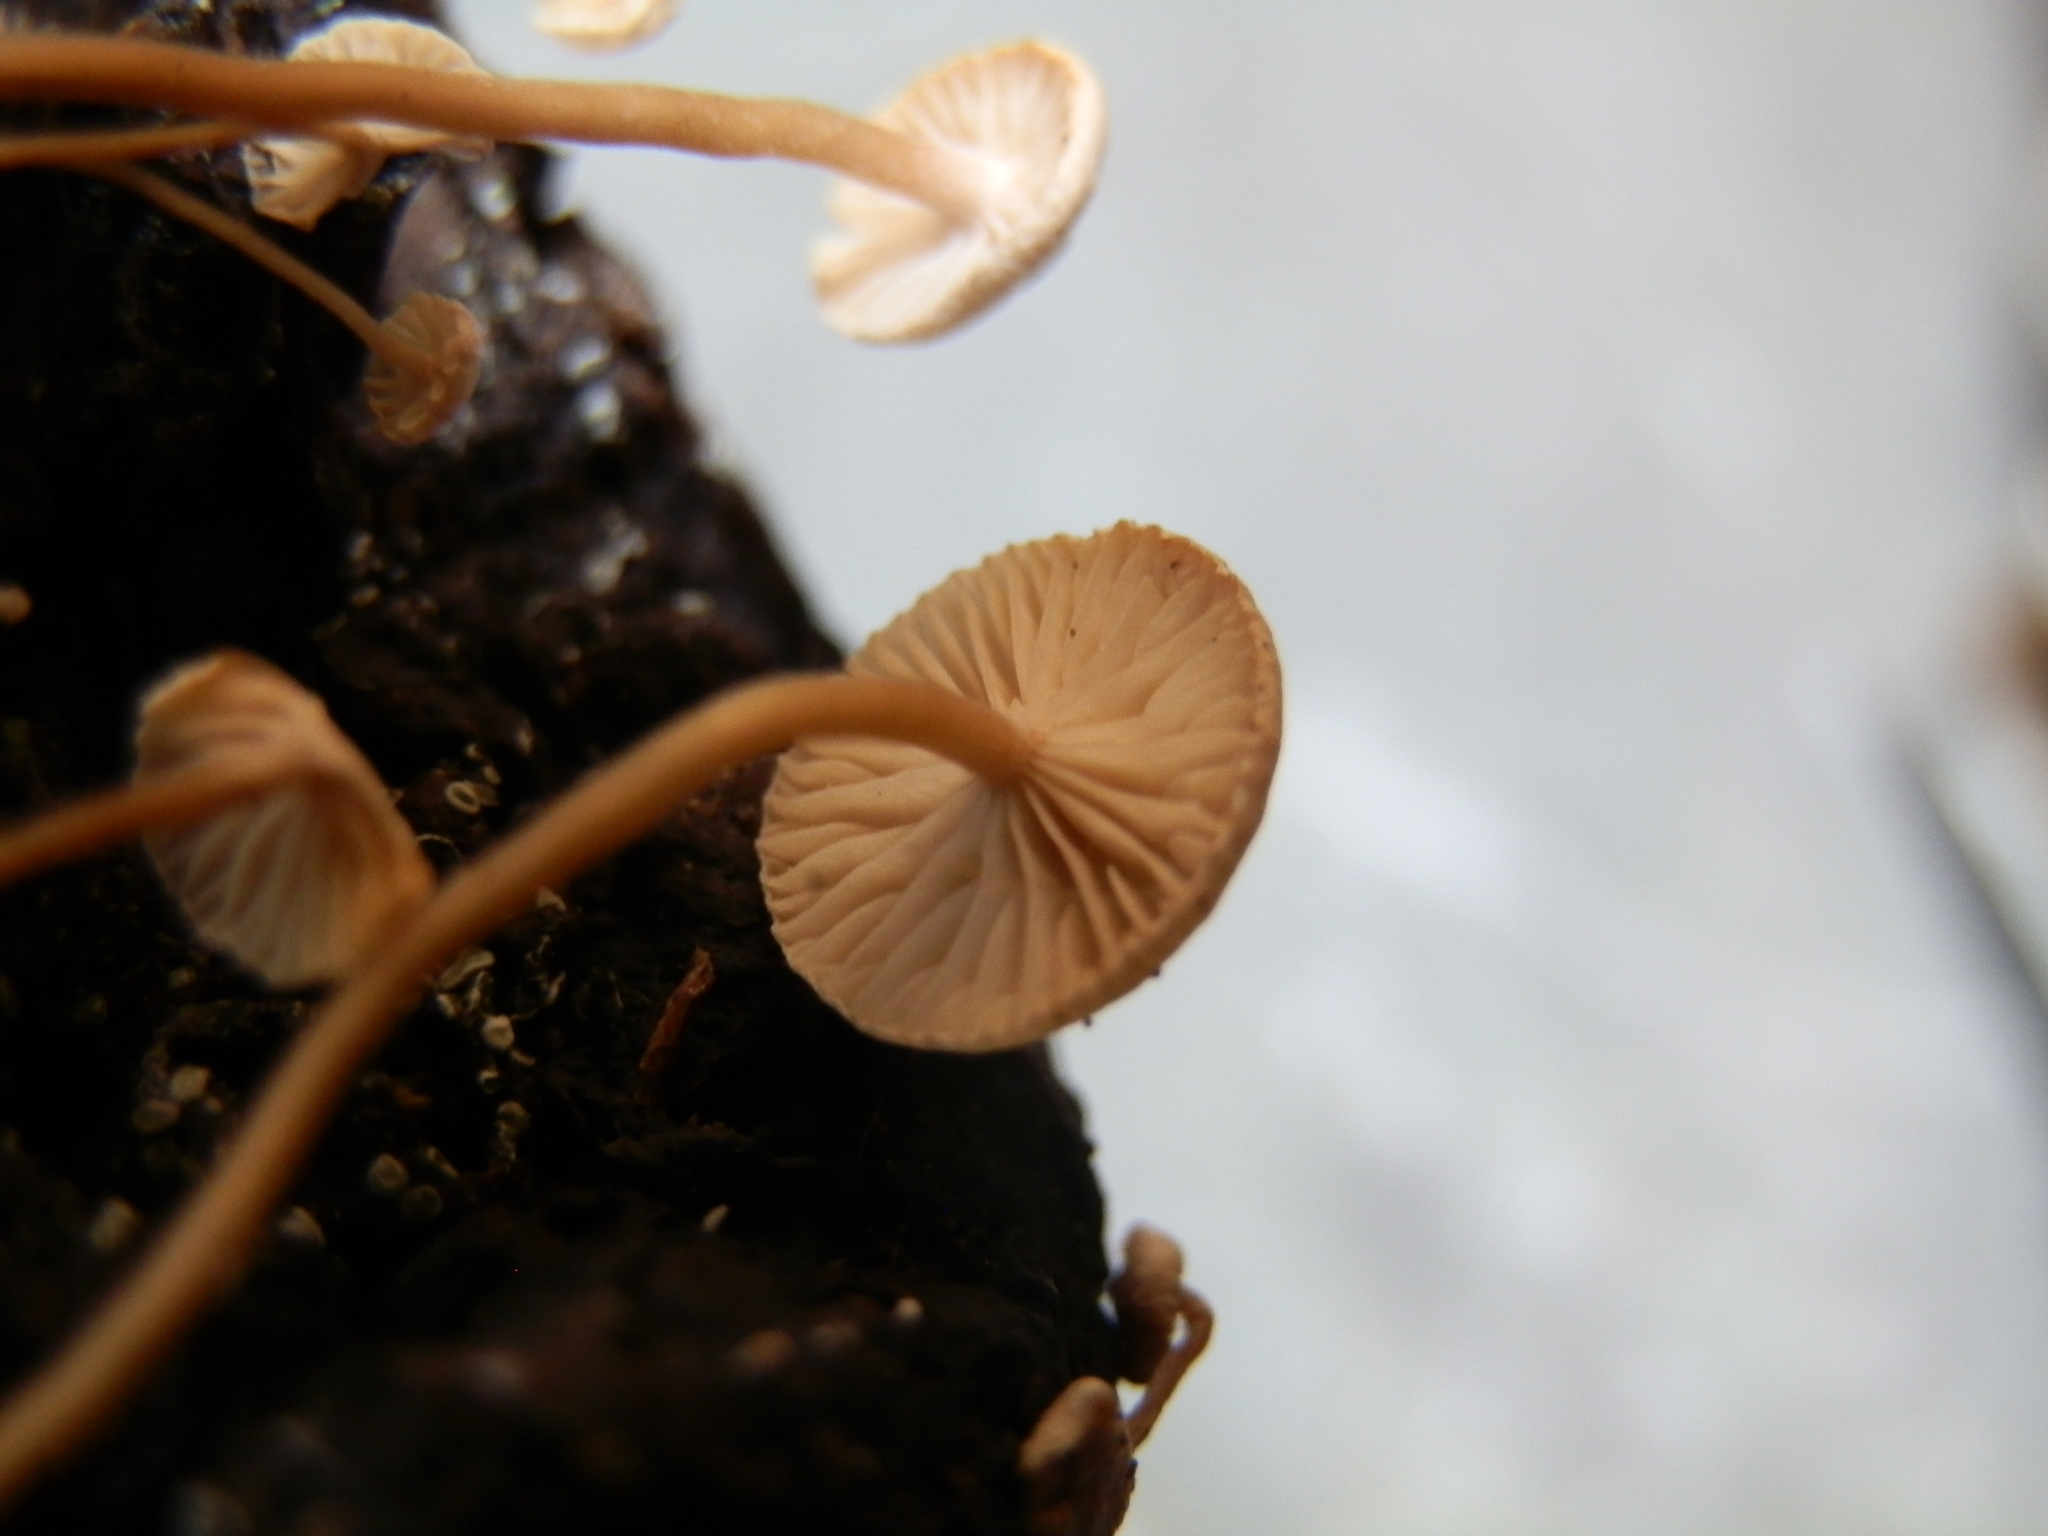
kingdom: Fungi
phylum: Basidiomycota
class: Agaricomycetes
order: Agaricales
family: Tricholomataceae
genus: Collybia
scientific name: Collybia cirrhata
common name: Piggyback shanklet
